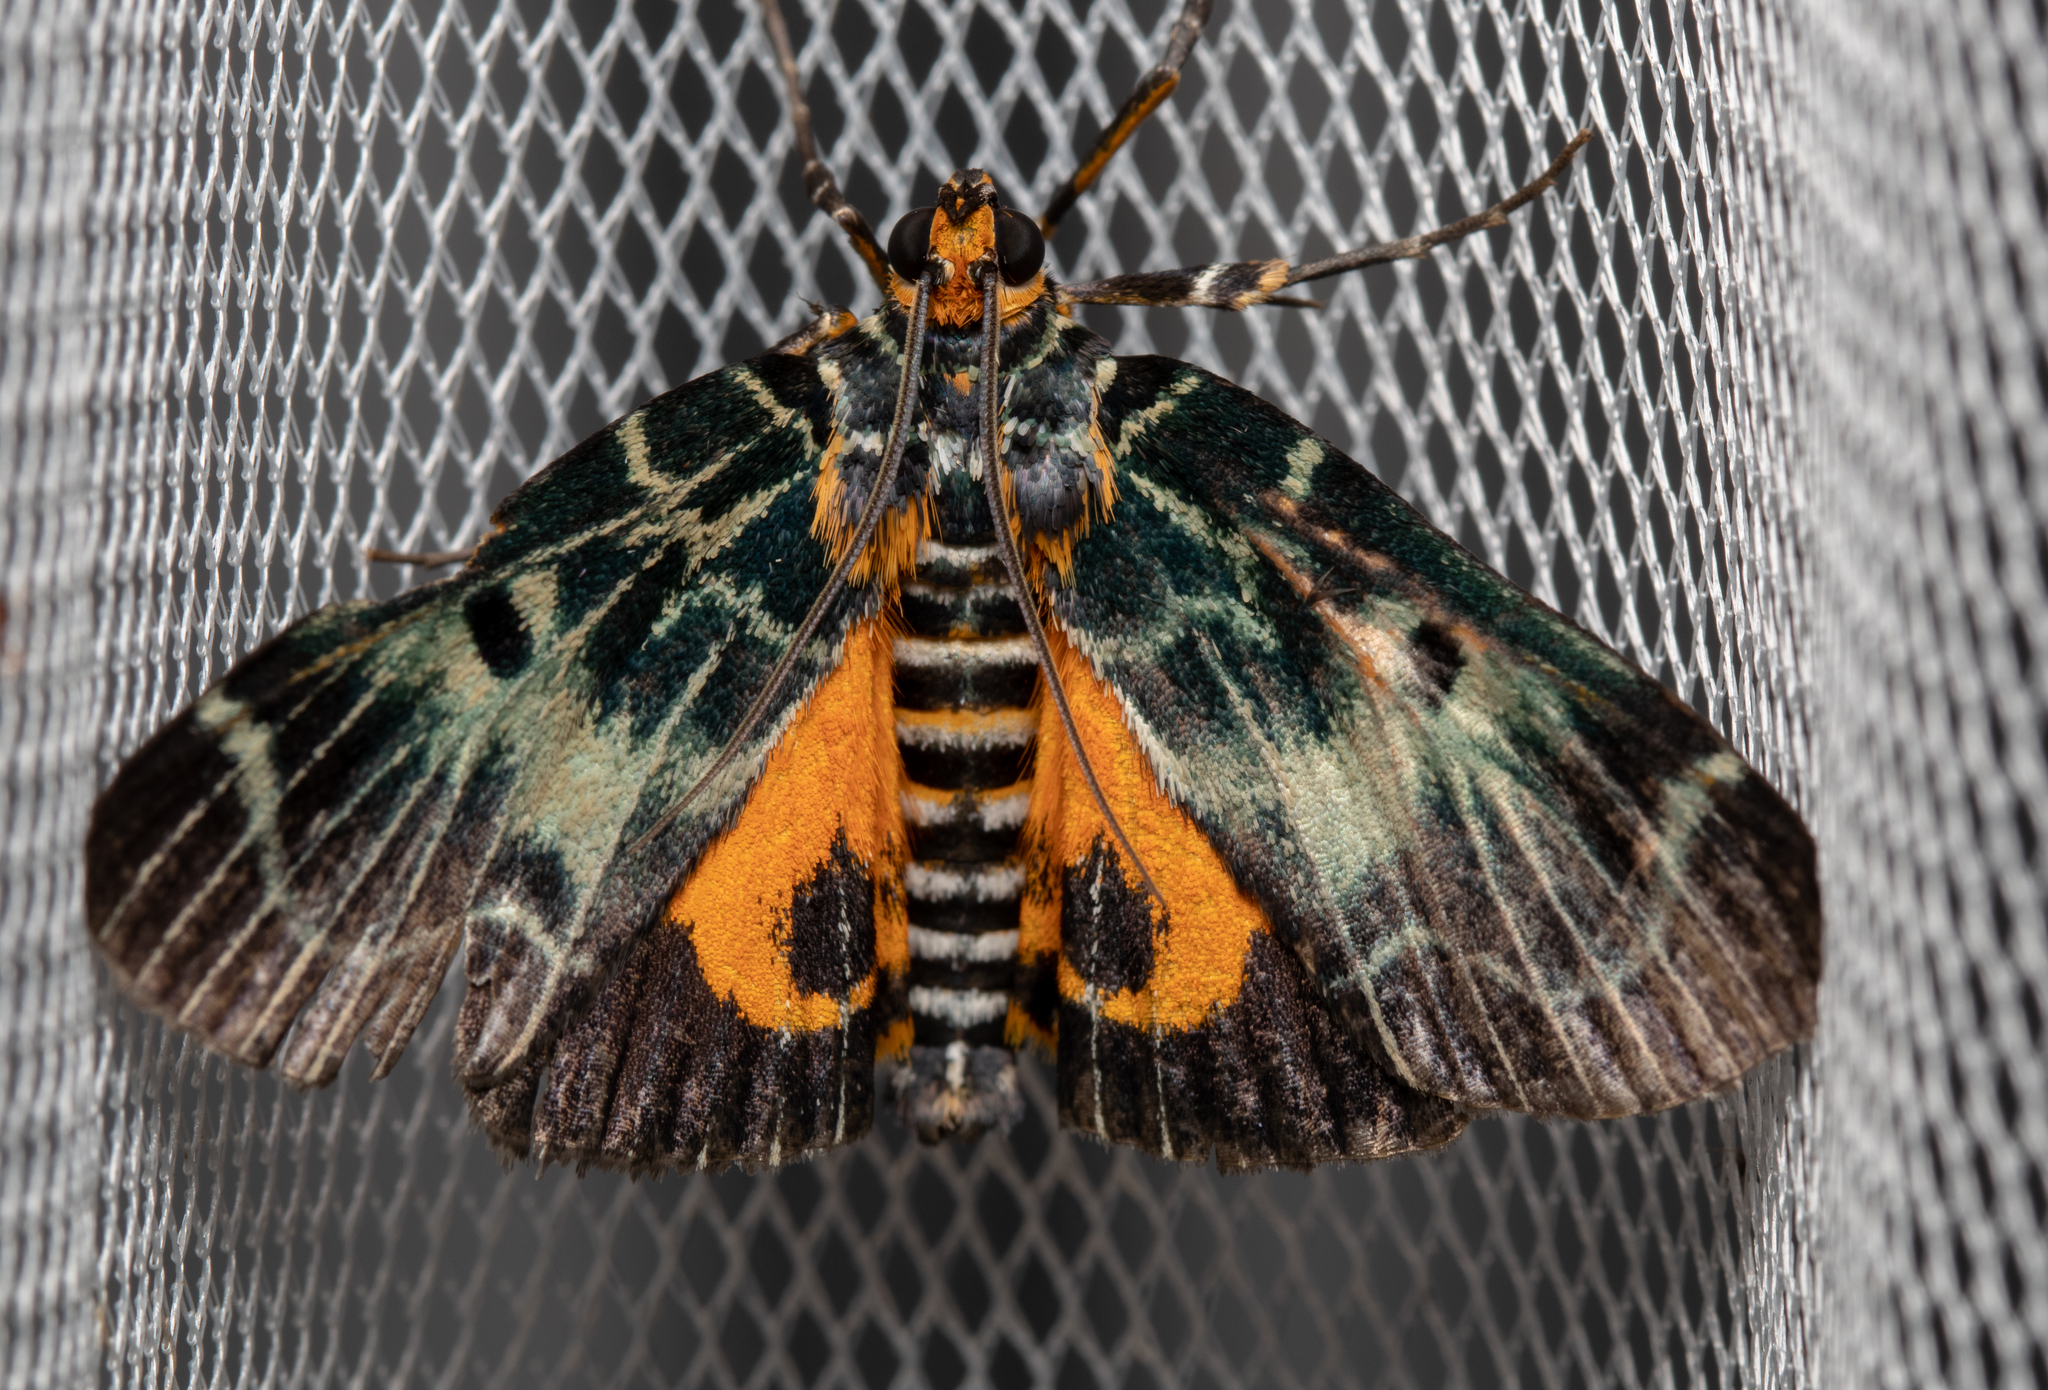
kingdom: Animalia
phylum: Arthropoda
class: Insecta
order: Lepidoptera
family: Pyralidae
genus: Cardamyla
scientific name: Cardamyla carinentalis
